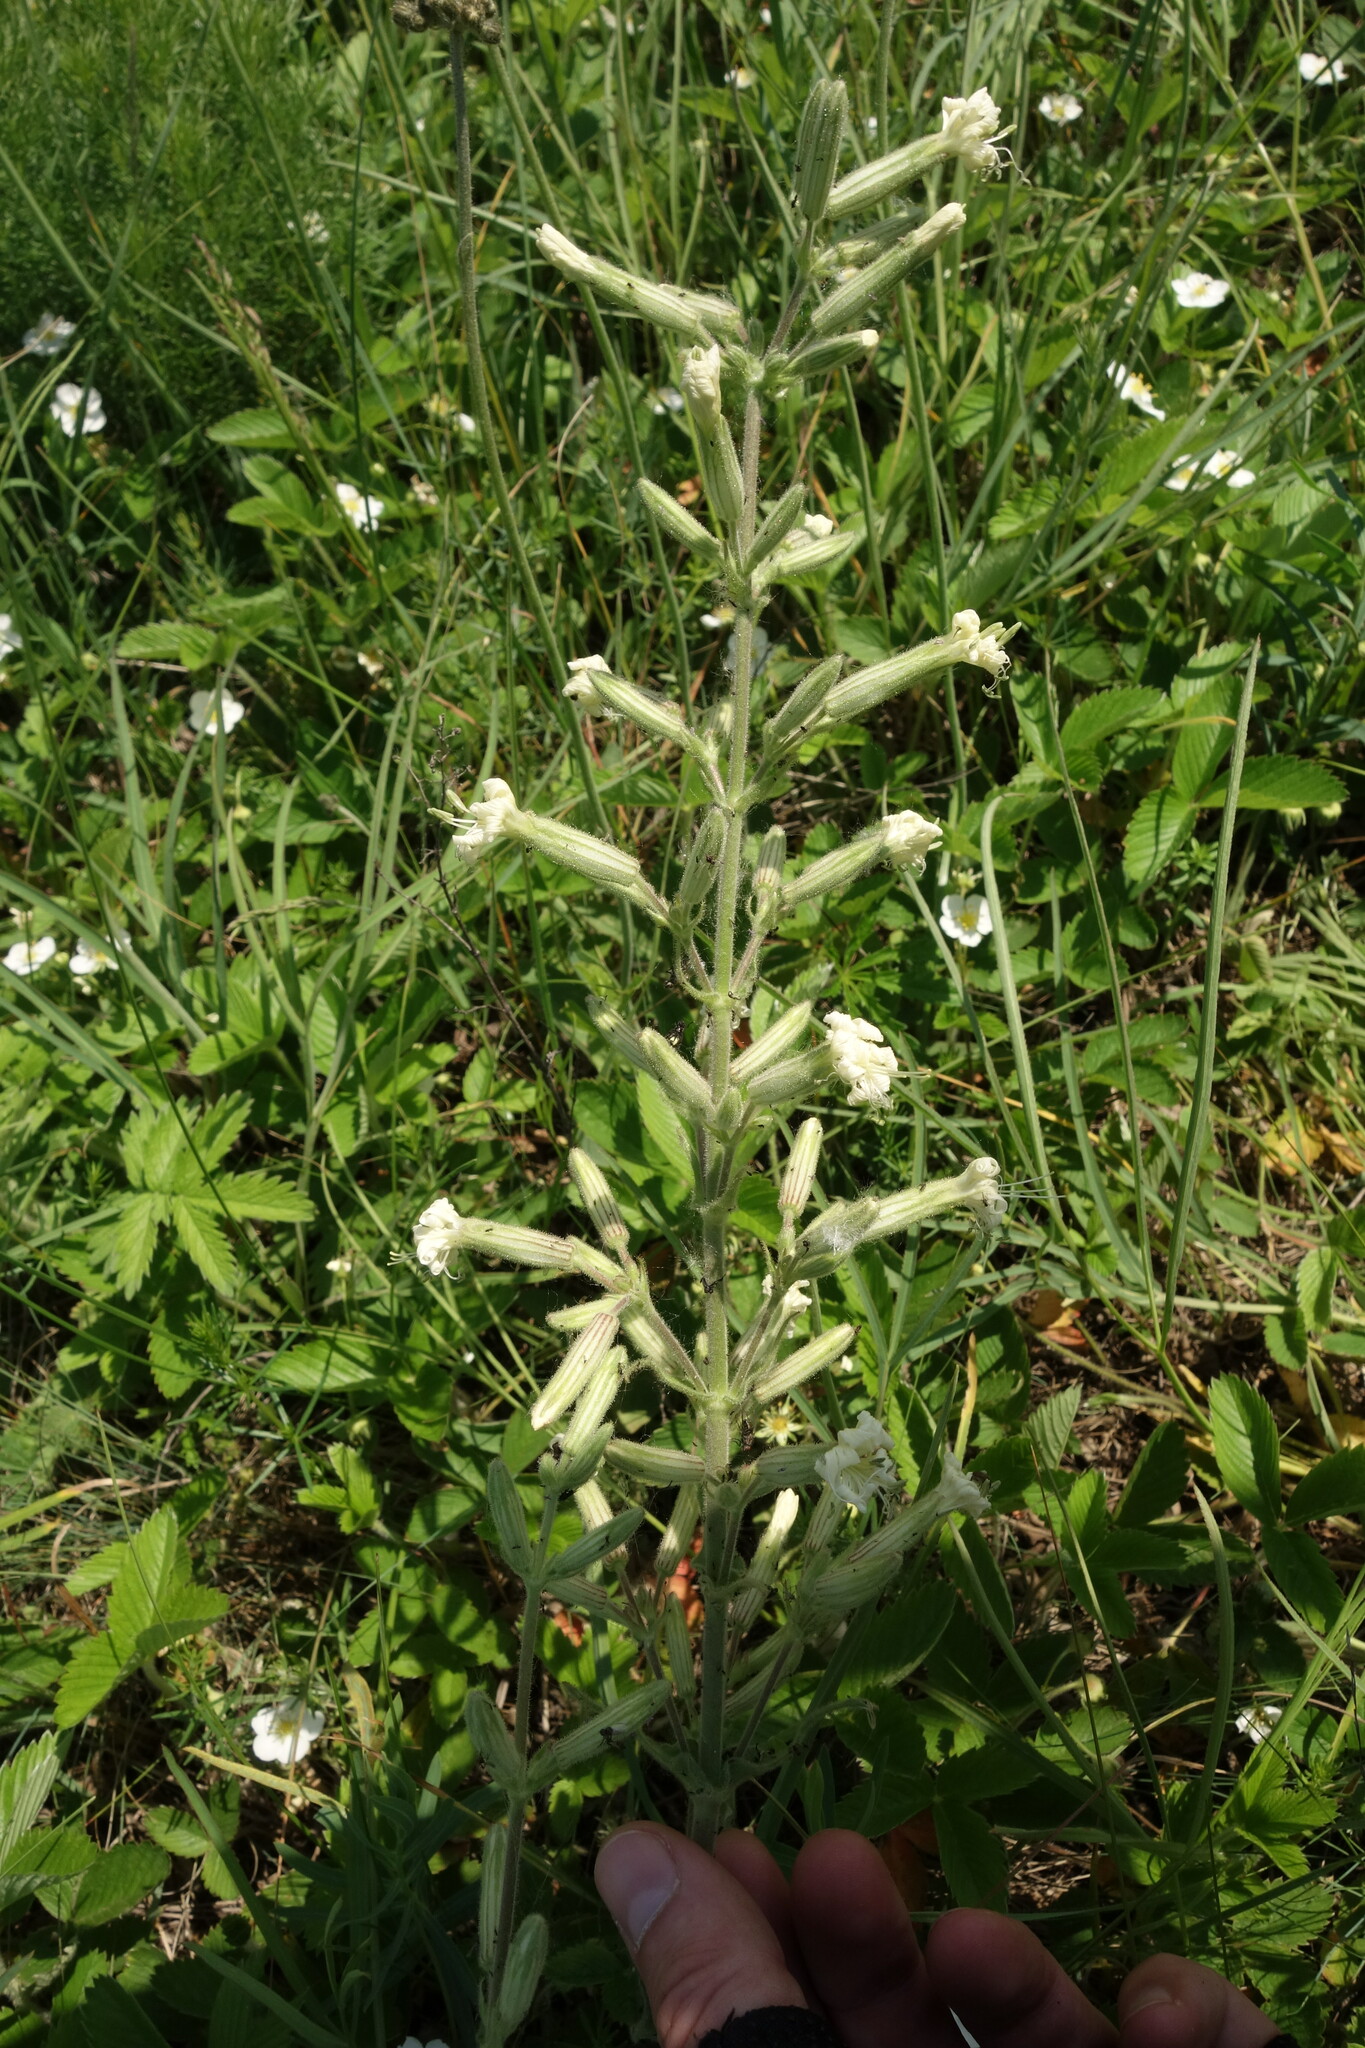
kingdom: Plantae
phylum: Tracheophyta
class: Magnoliopsida
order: Caryophyllales
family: Caryophyllaceae
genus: Silene
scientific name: Silene viscosa
